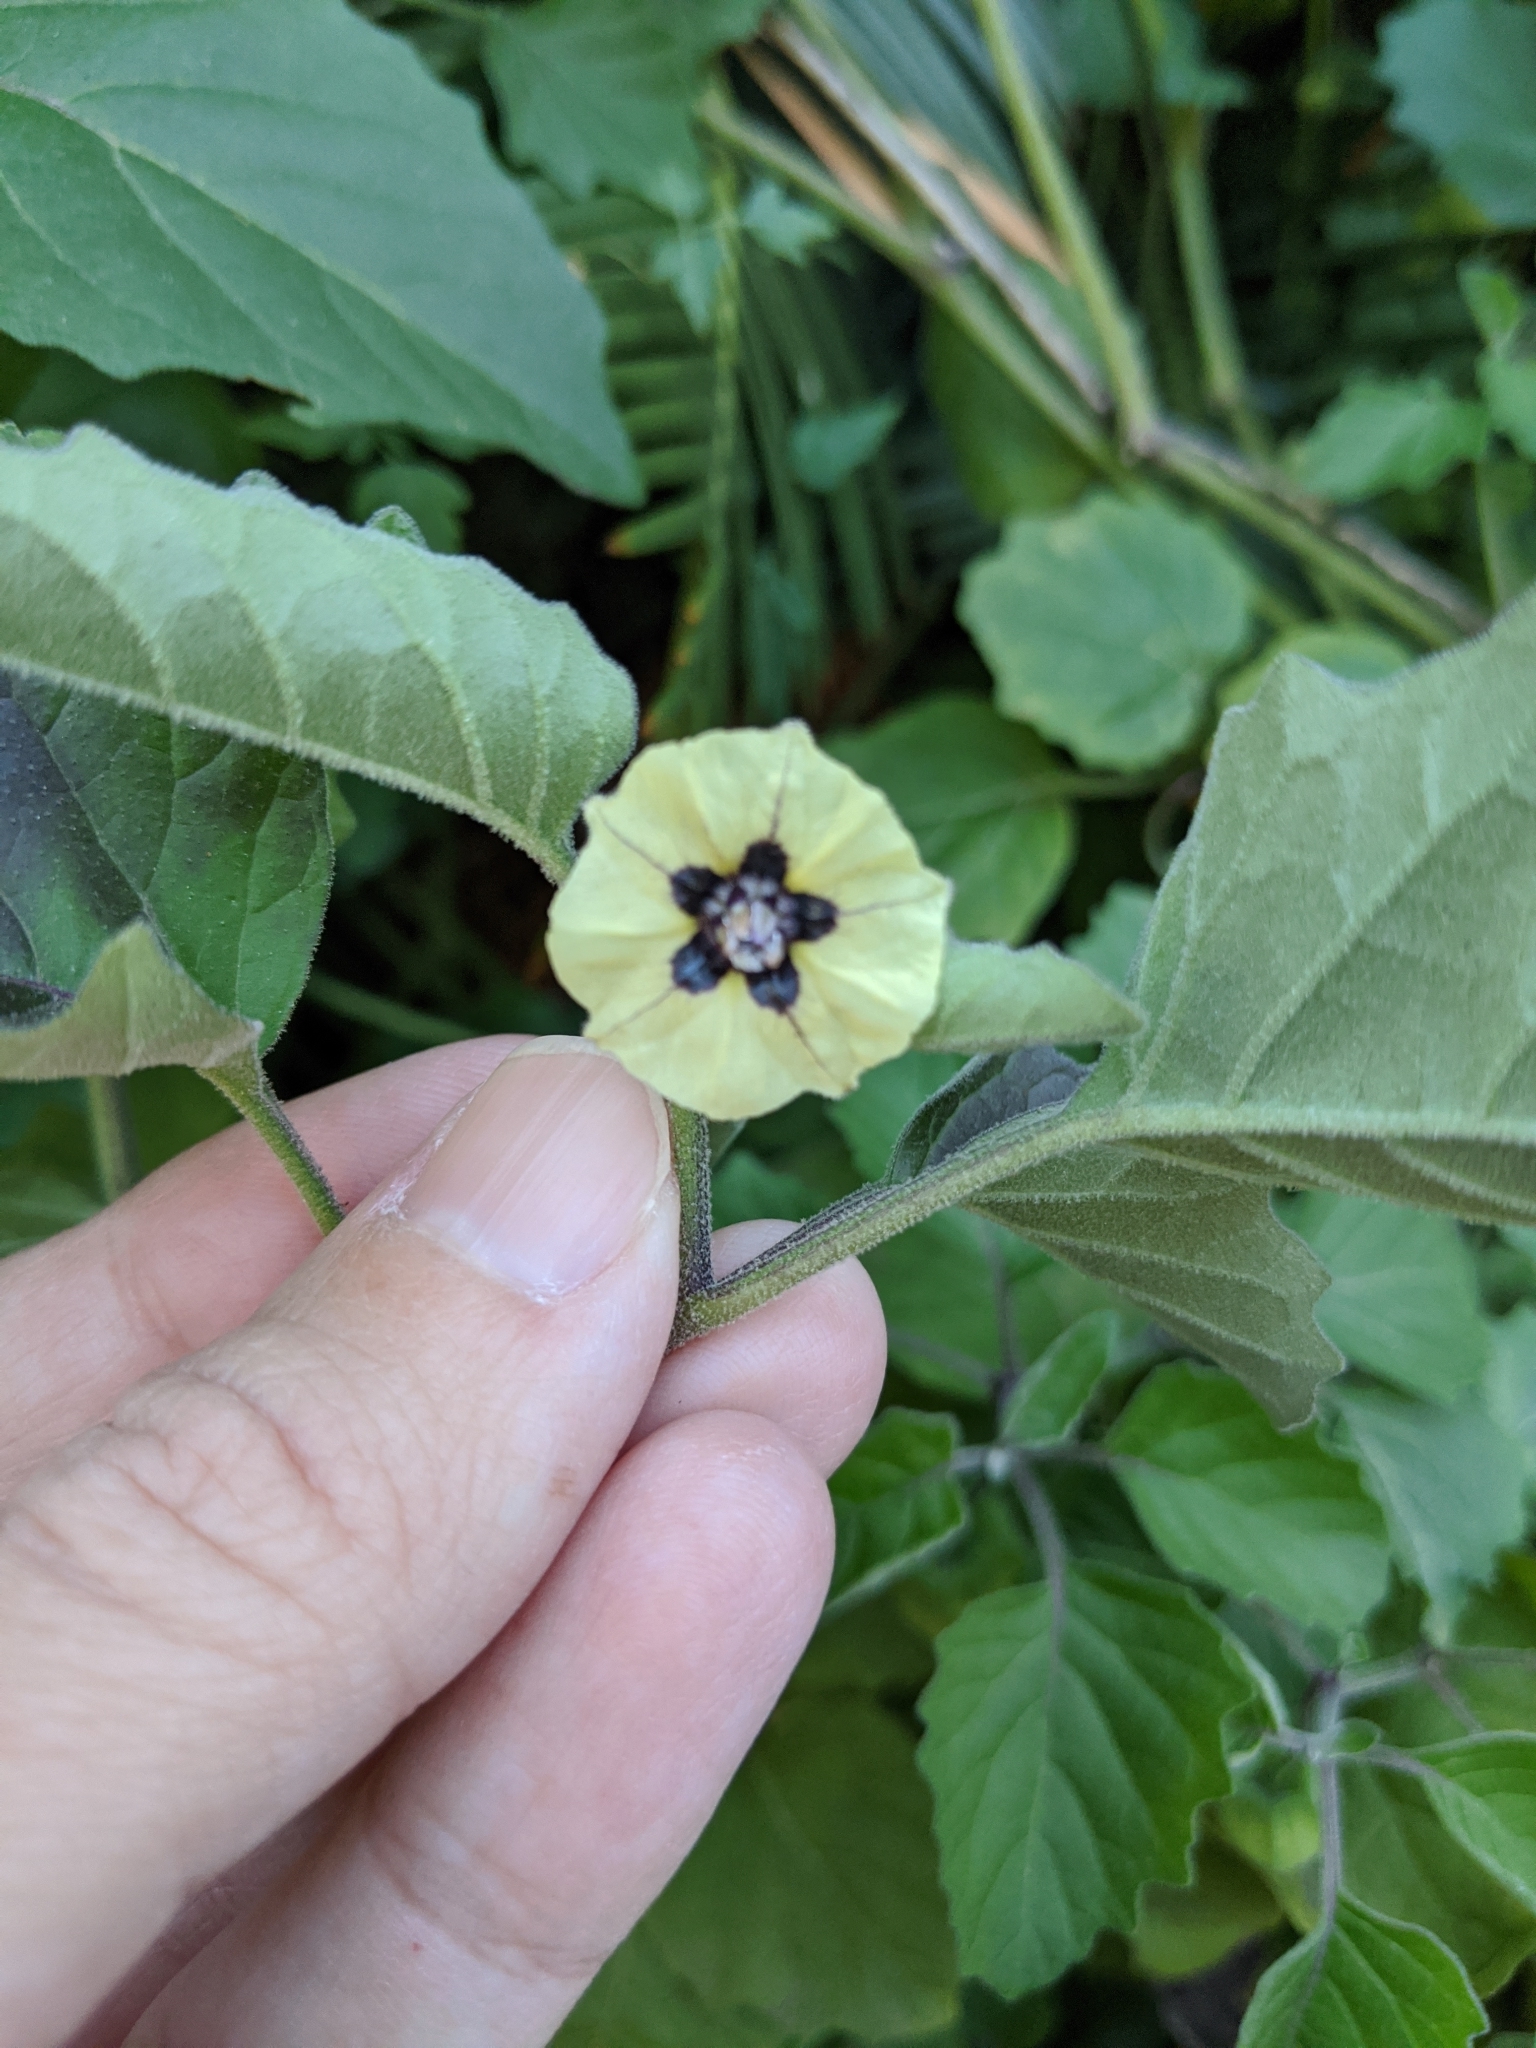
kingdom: Plantae
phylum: Tracheophyta
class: Magnoliopsida
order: Solanales
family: Solanaceae
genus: Physalis
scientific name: Physalis mollis
